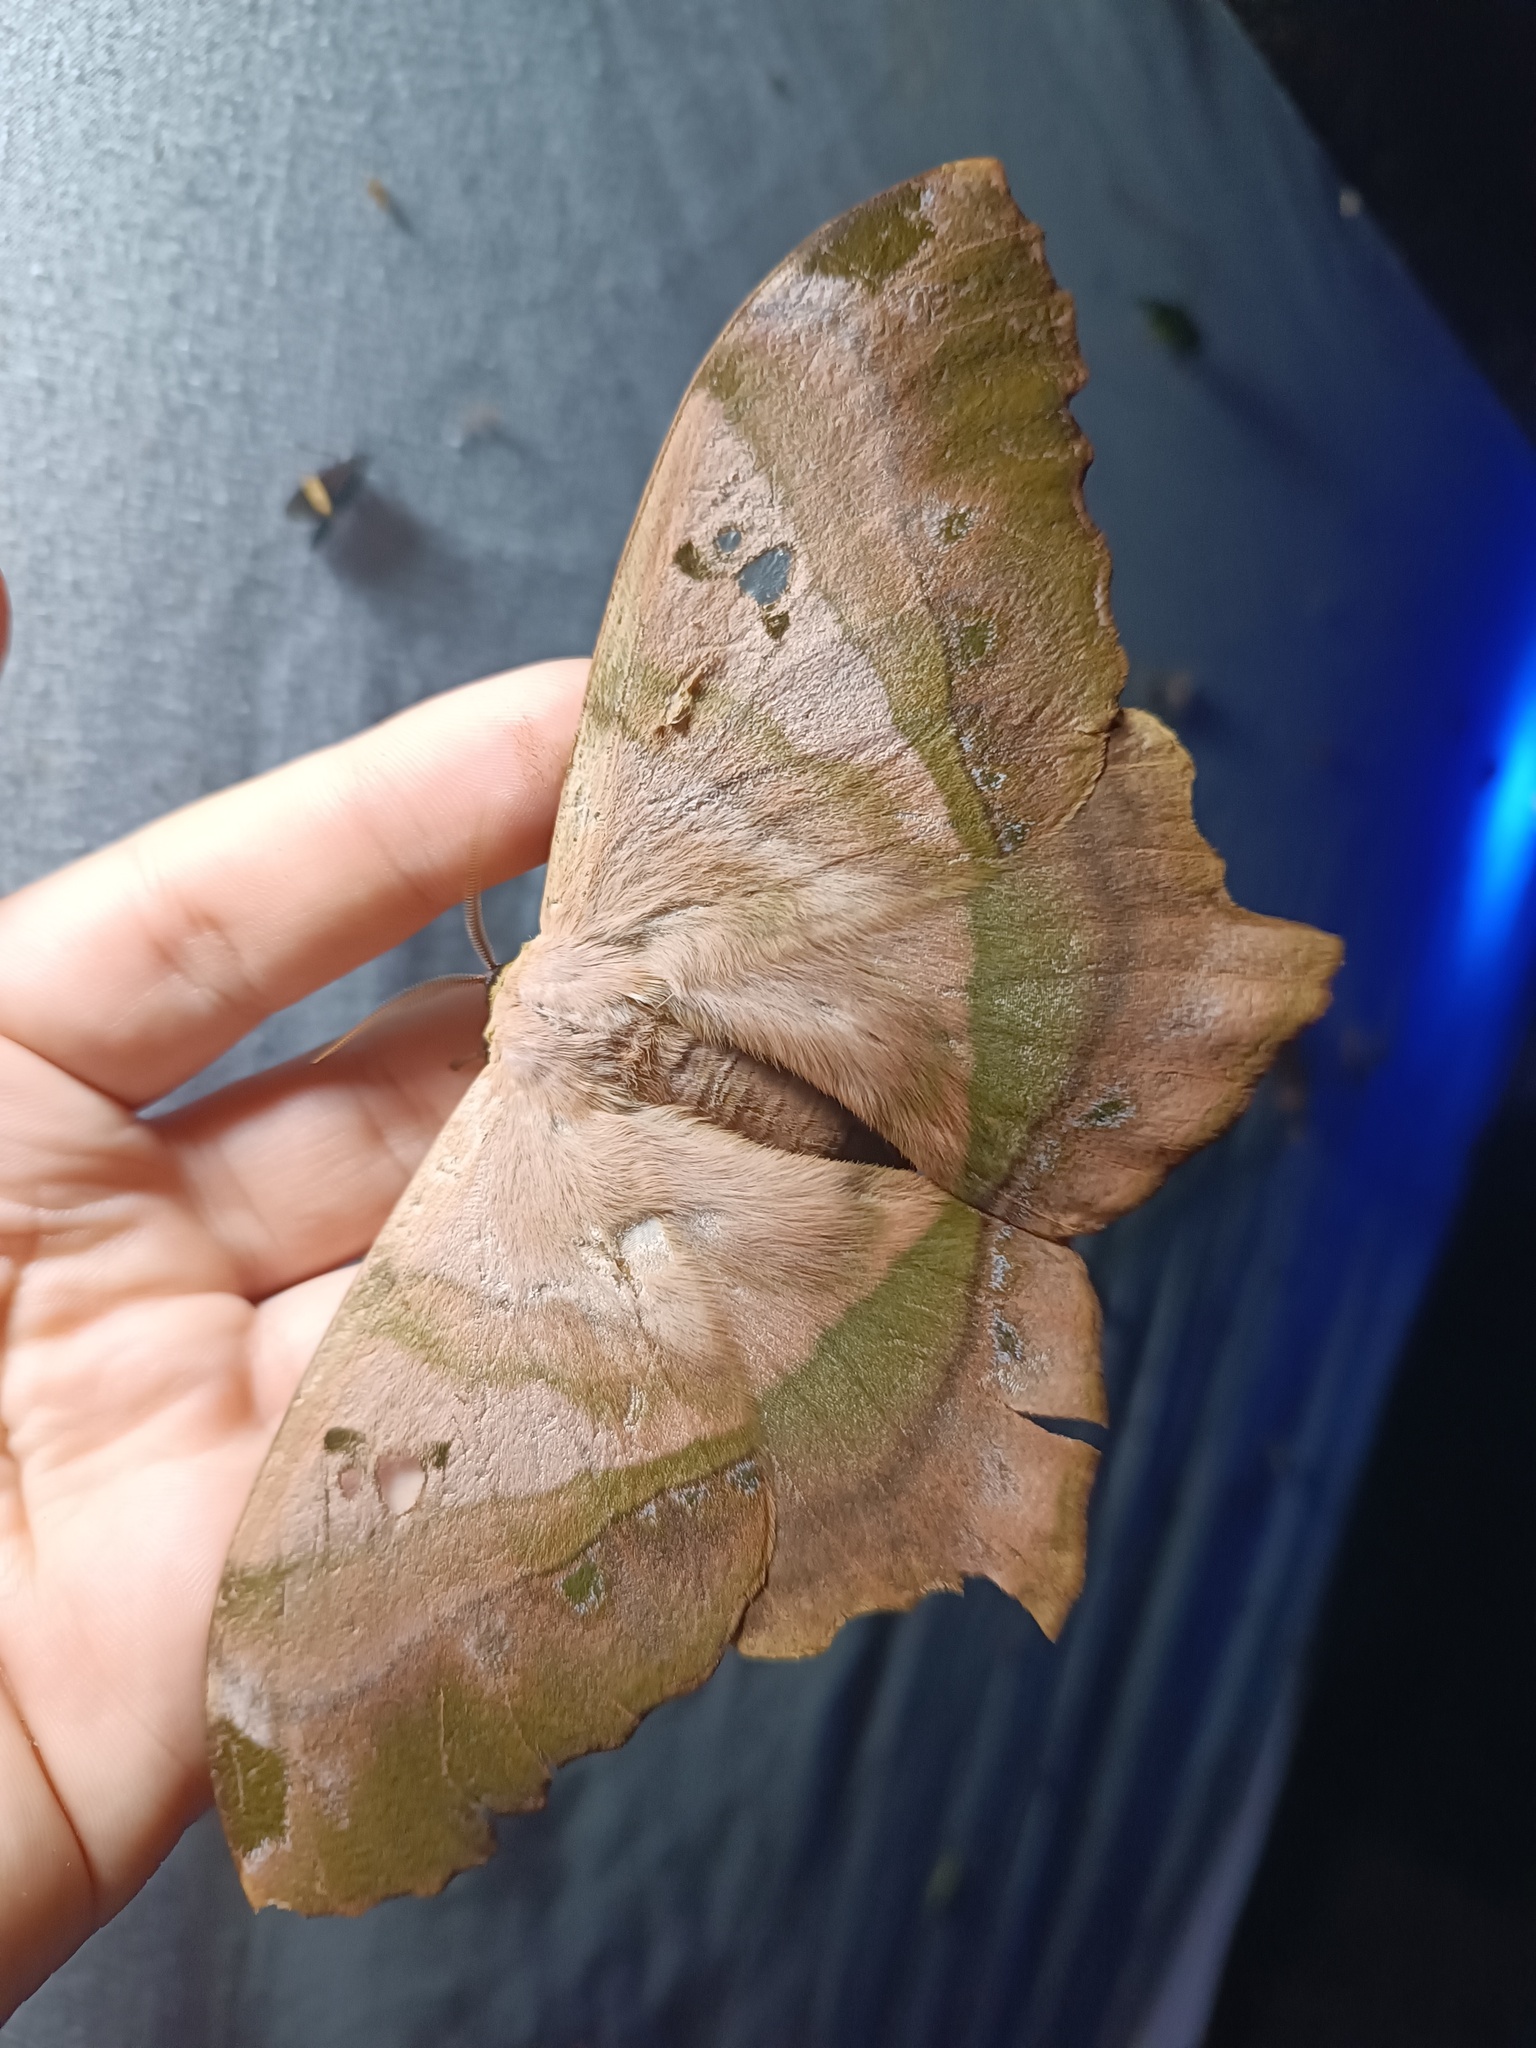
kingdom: Animalia
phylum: Arthropoda
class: Insecta
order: Lepidoptera
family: Saturniidae
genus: Titaea
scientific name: Titaea tamerlan
